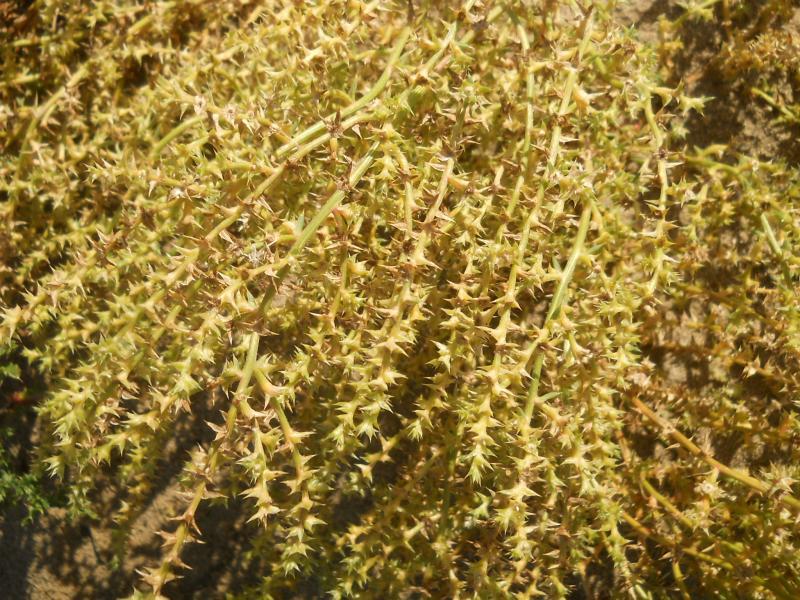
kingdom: Plantae
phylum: Tracheophyta
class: Magnoliopsida
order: Caryophyllales
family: Amaranthaceae
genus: Salsola
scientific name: Salsola kali
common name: Saltwort
